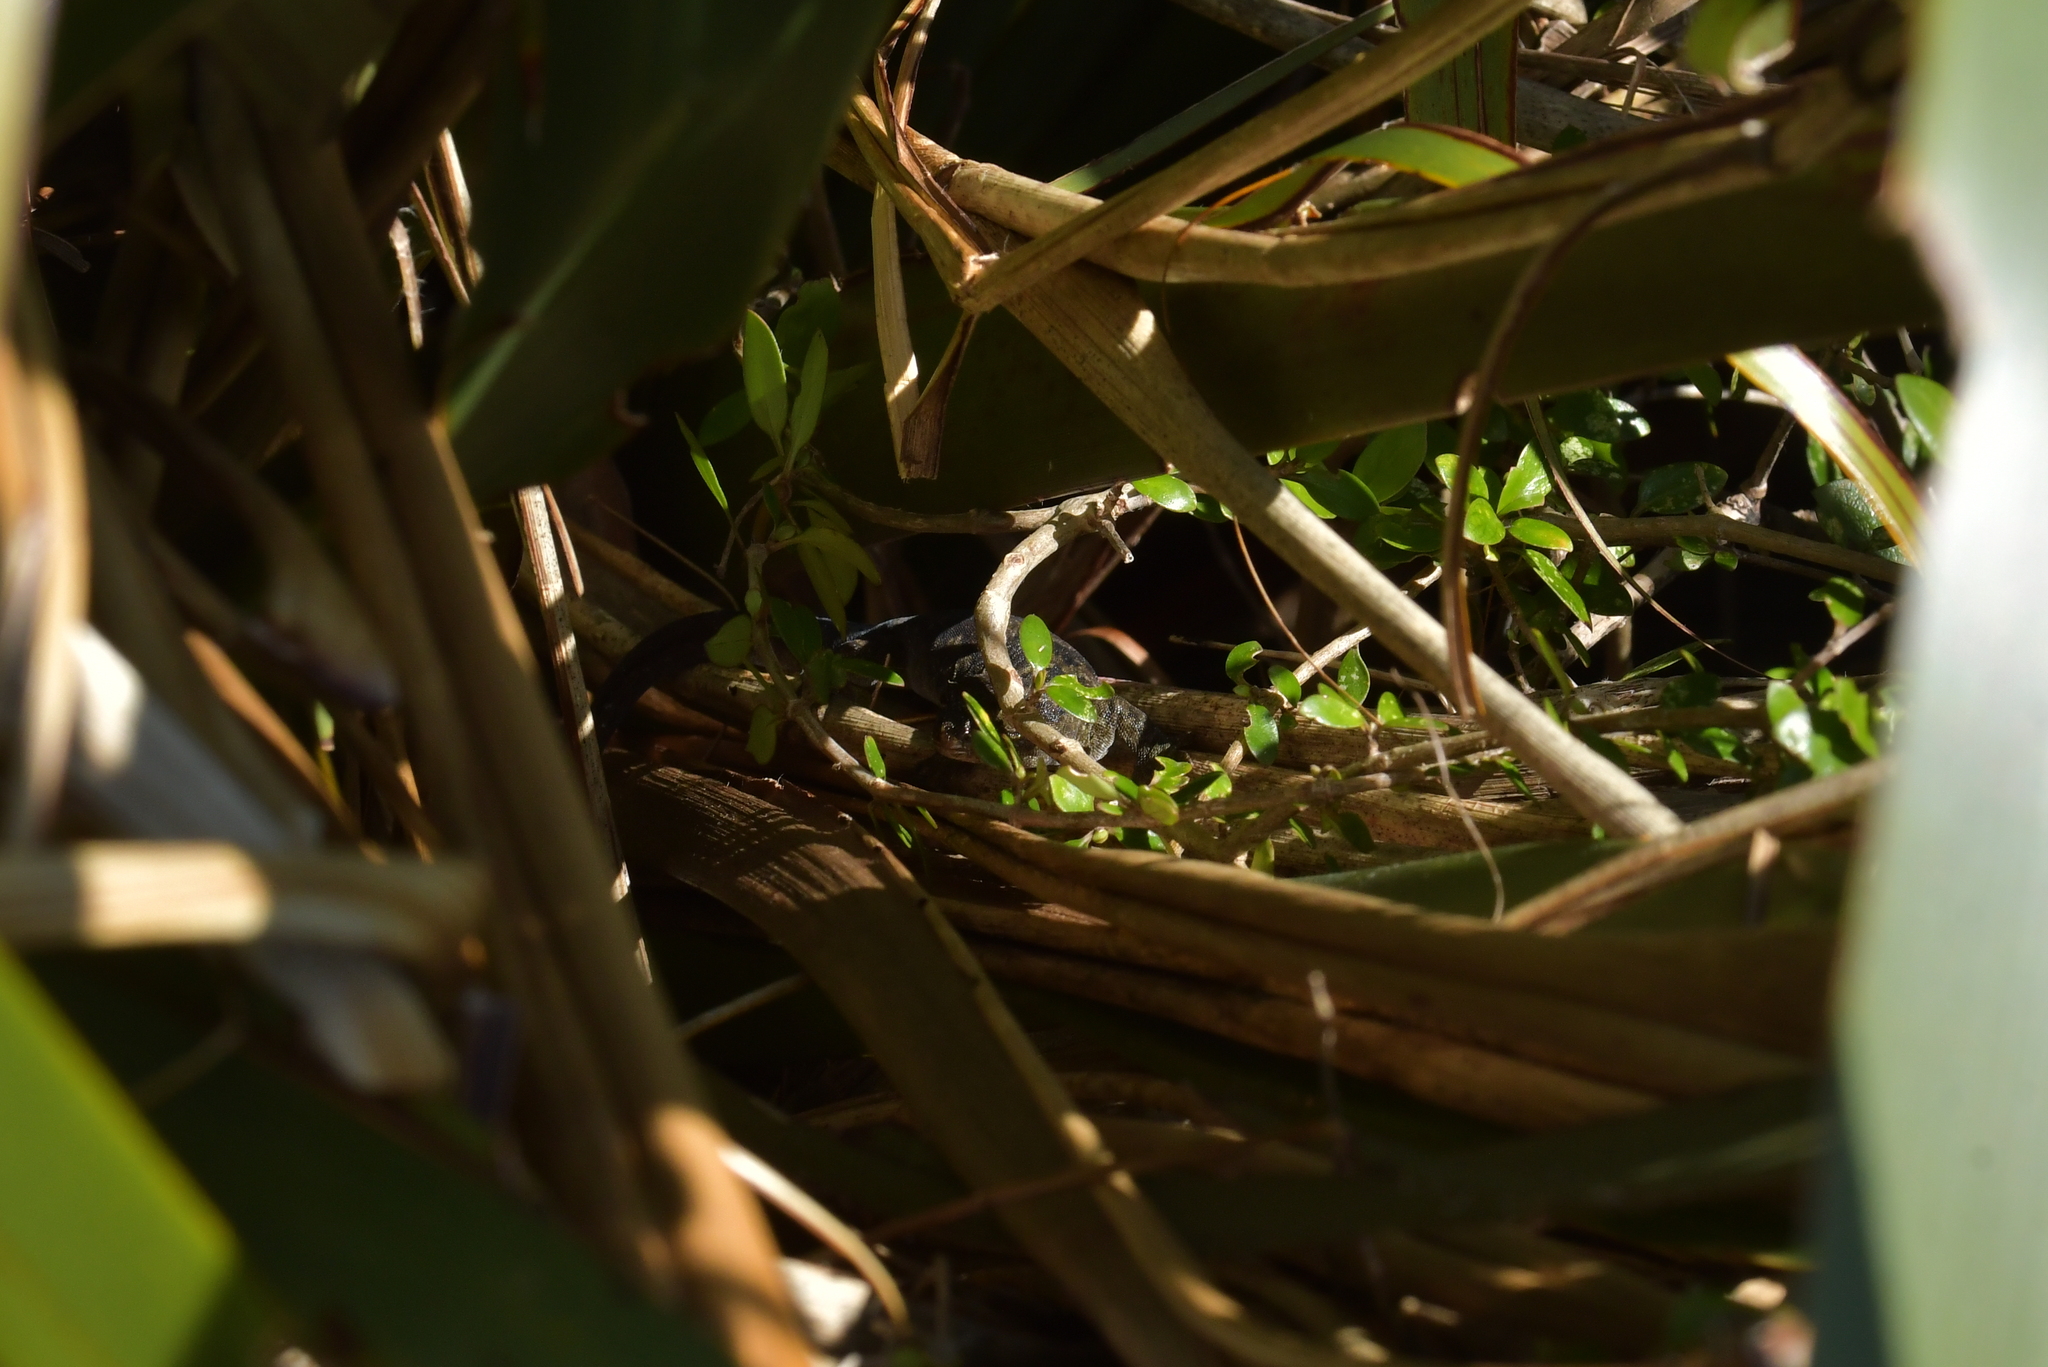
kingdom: Animalia
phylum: Chordata
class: Squamata
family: Diplodactylidae
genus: Woodworthia
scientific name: Woodworthia maculata
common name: Raukawa gecko
